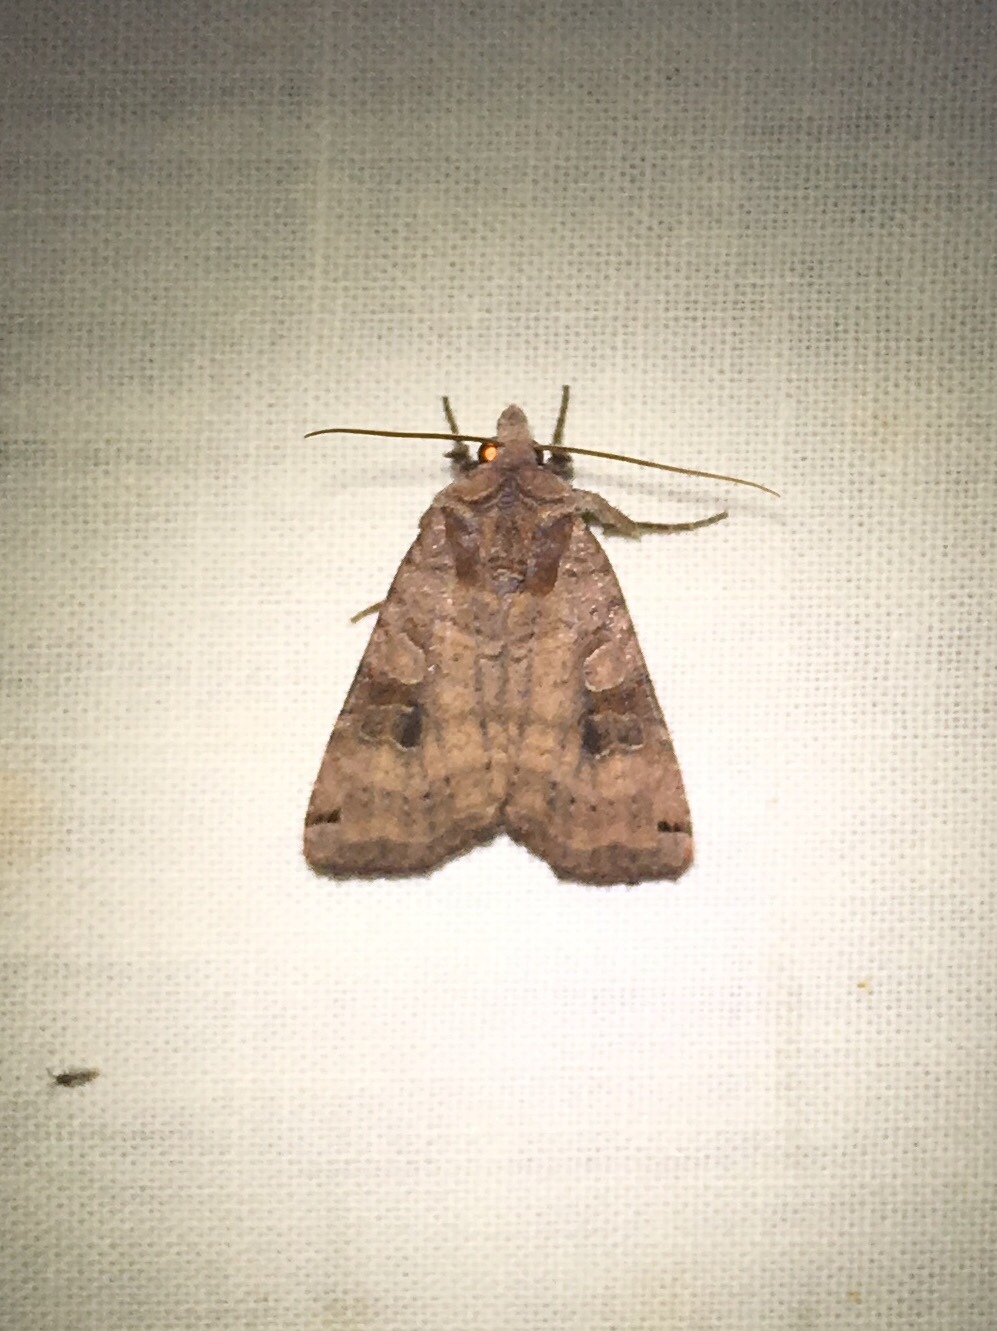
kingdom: Animalia
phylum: Arthropoda
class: Insecta
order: Lepidoptera
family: Noctuidae
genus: Xestia
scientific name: Xestia smithii
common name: Smith's dart
